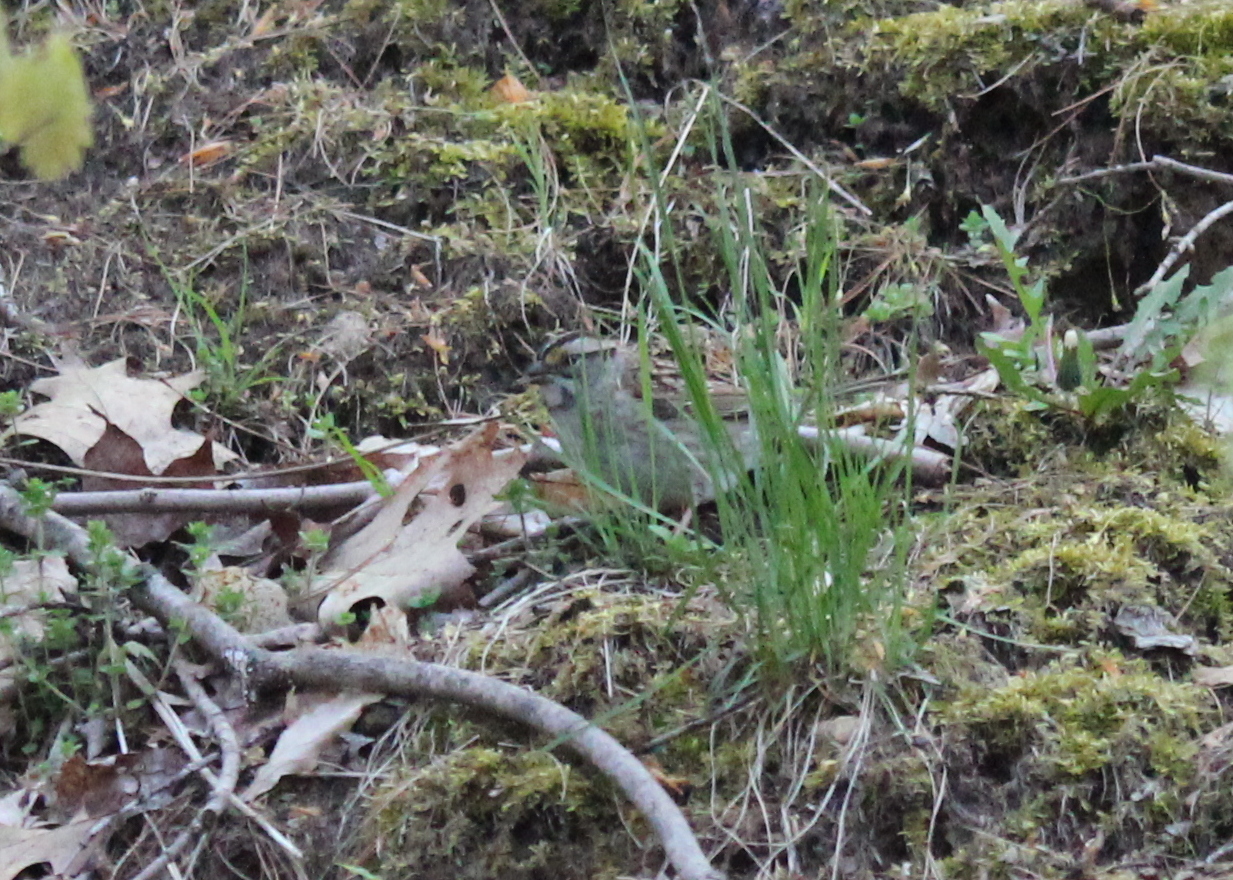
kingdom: Animalia
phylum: Chordata
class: Aves
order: Passeriformes
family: Passerellidae
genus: Zonotrichia
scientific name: Zonotrichia albicollis
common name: White-throated sparrow
